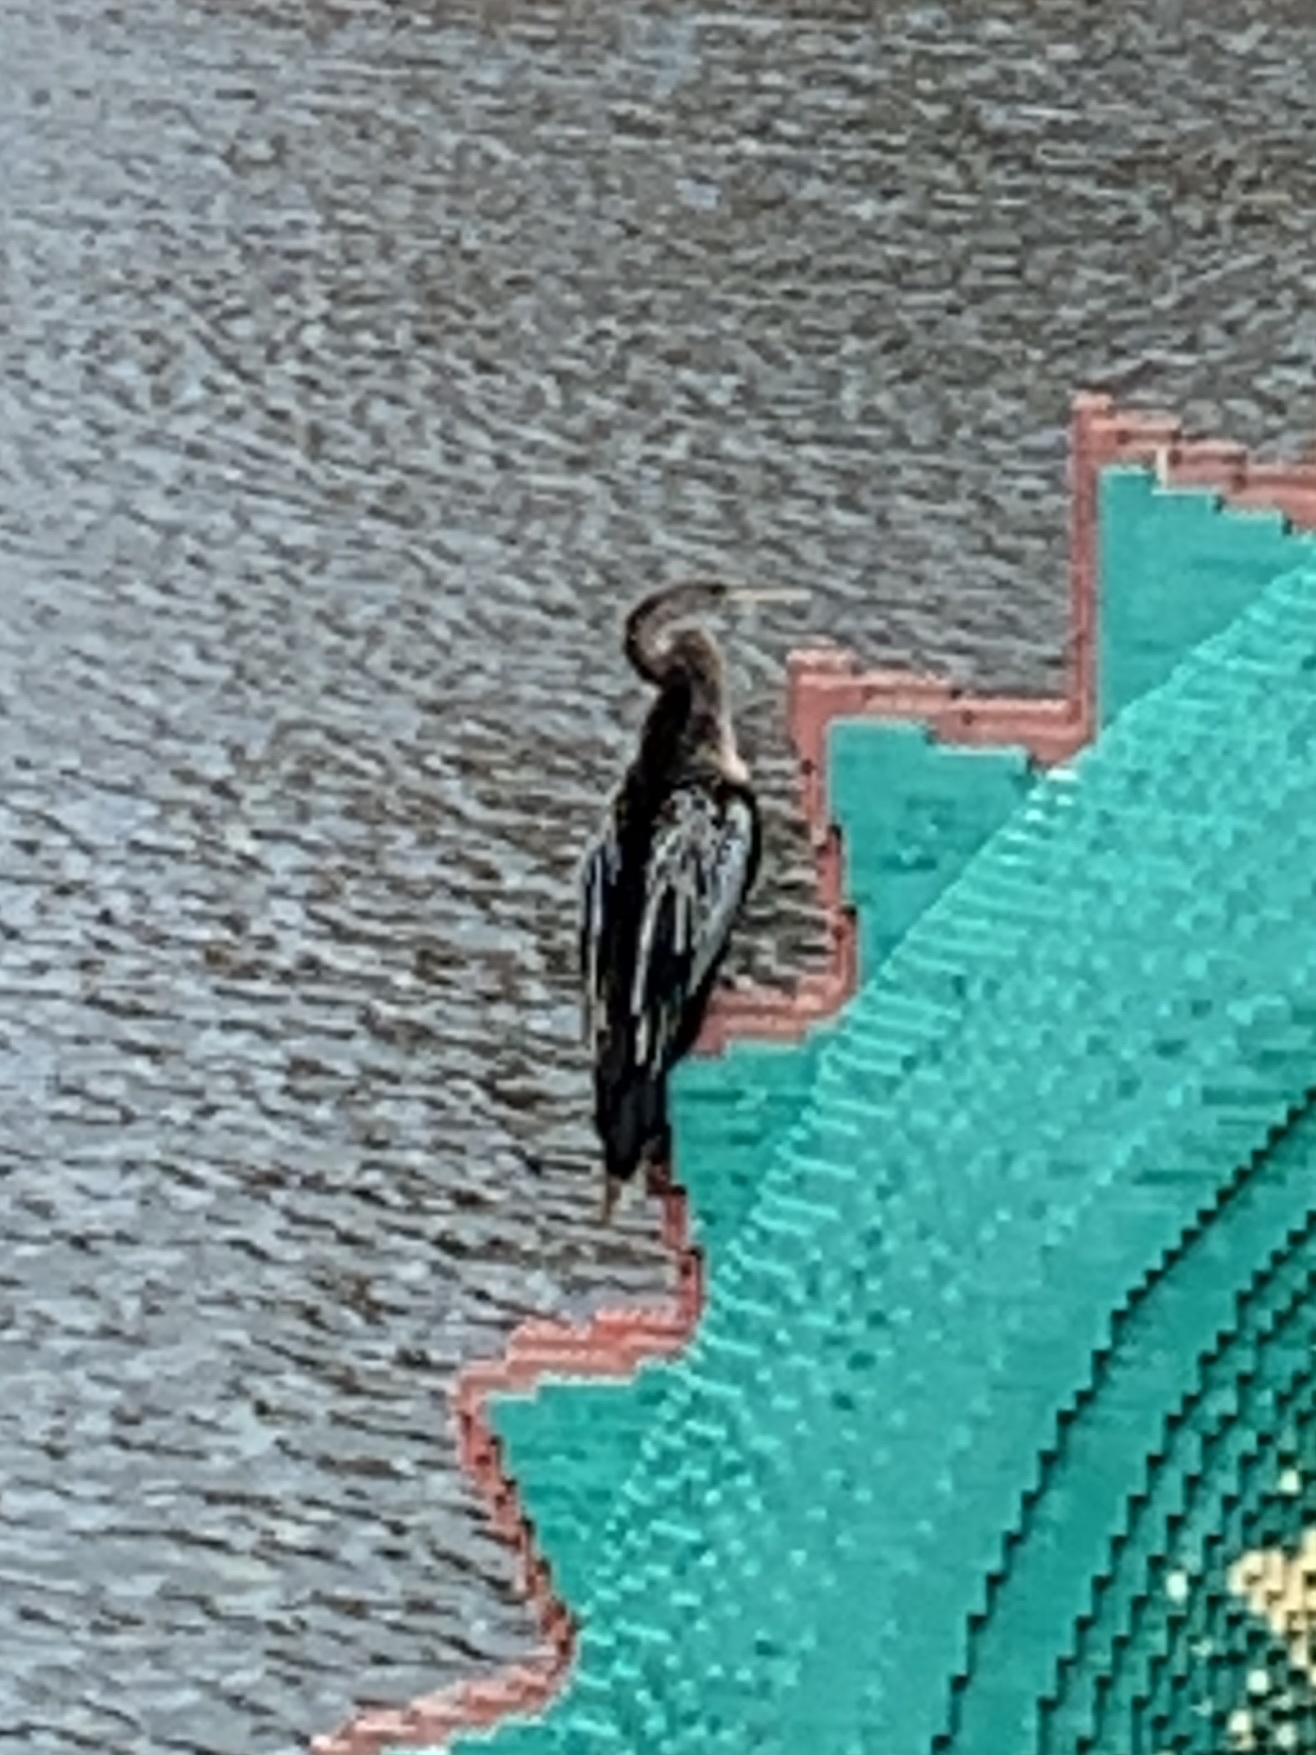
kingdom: Animalia
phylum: Chordata
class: Aves
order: Suliformes
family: Anhingidae
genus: Anhinga
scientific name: Anhinga anhinga
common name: Anhinga
